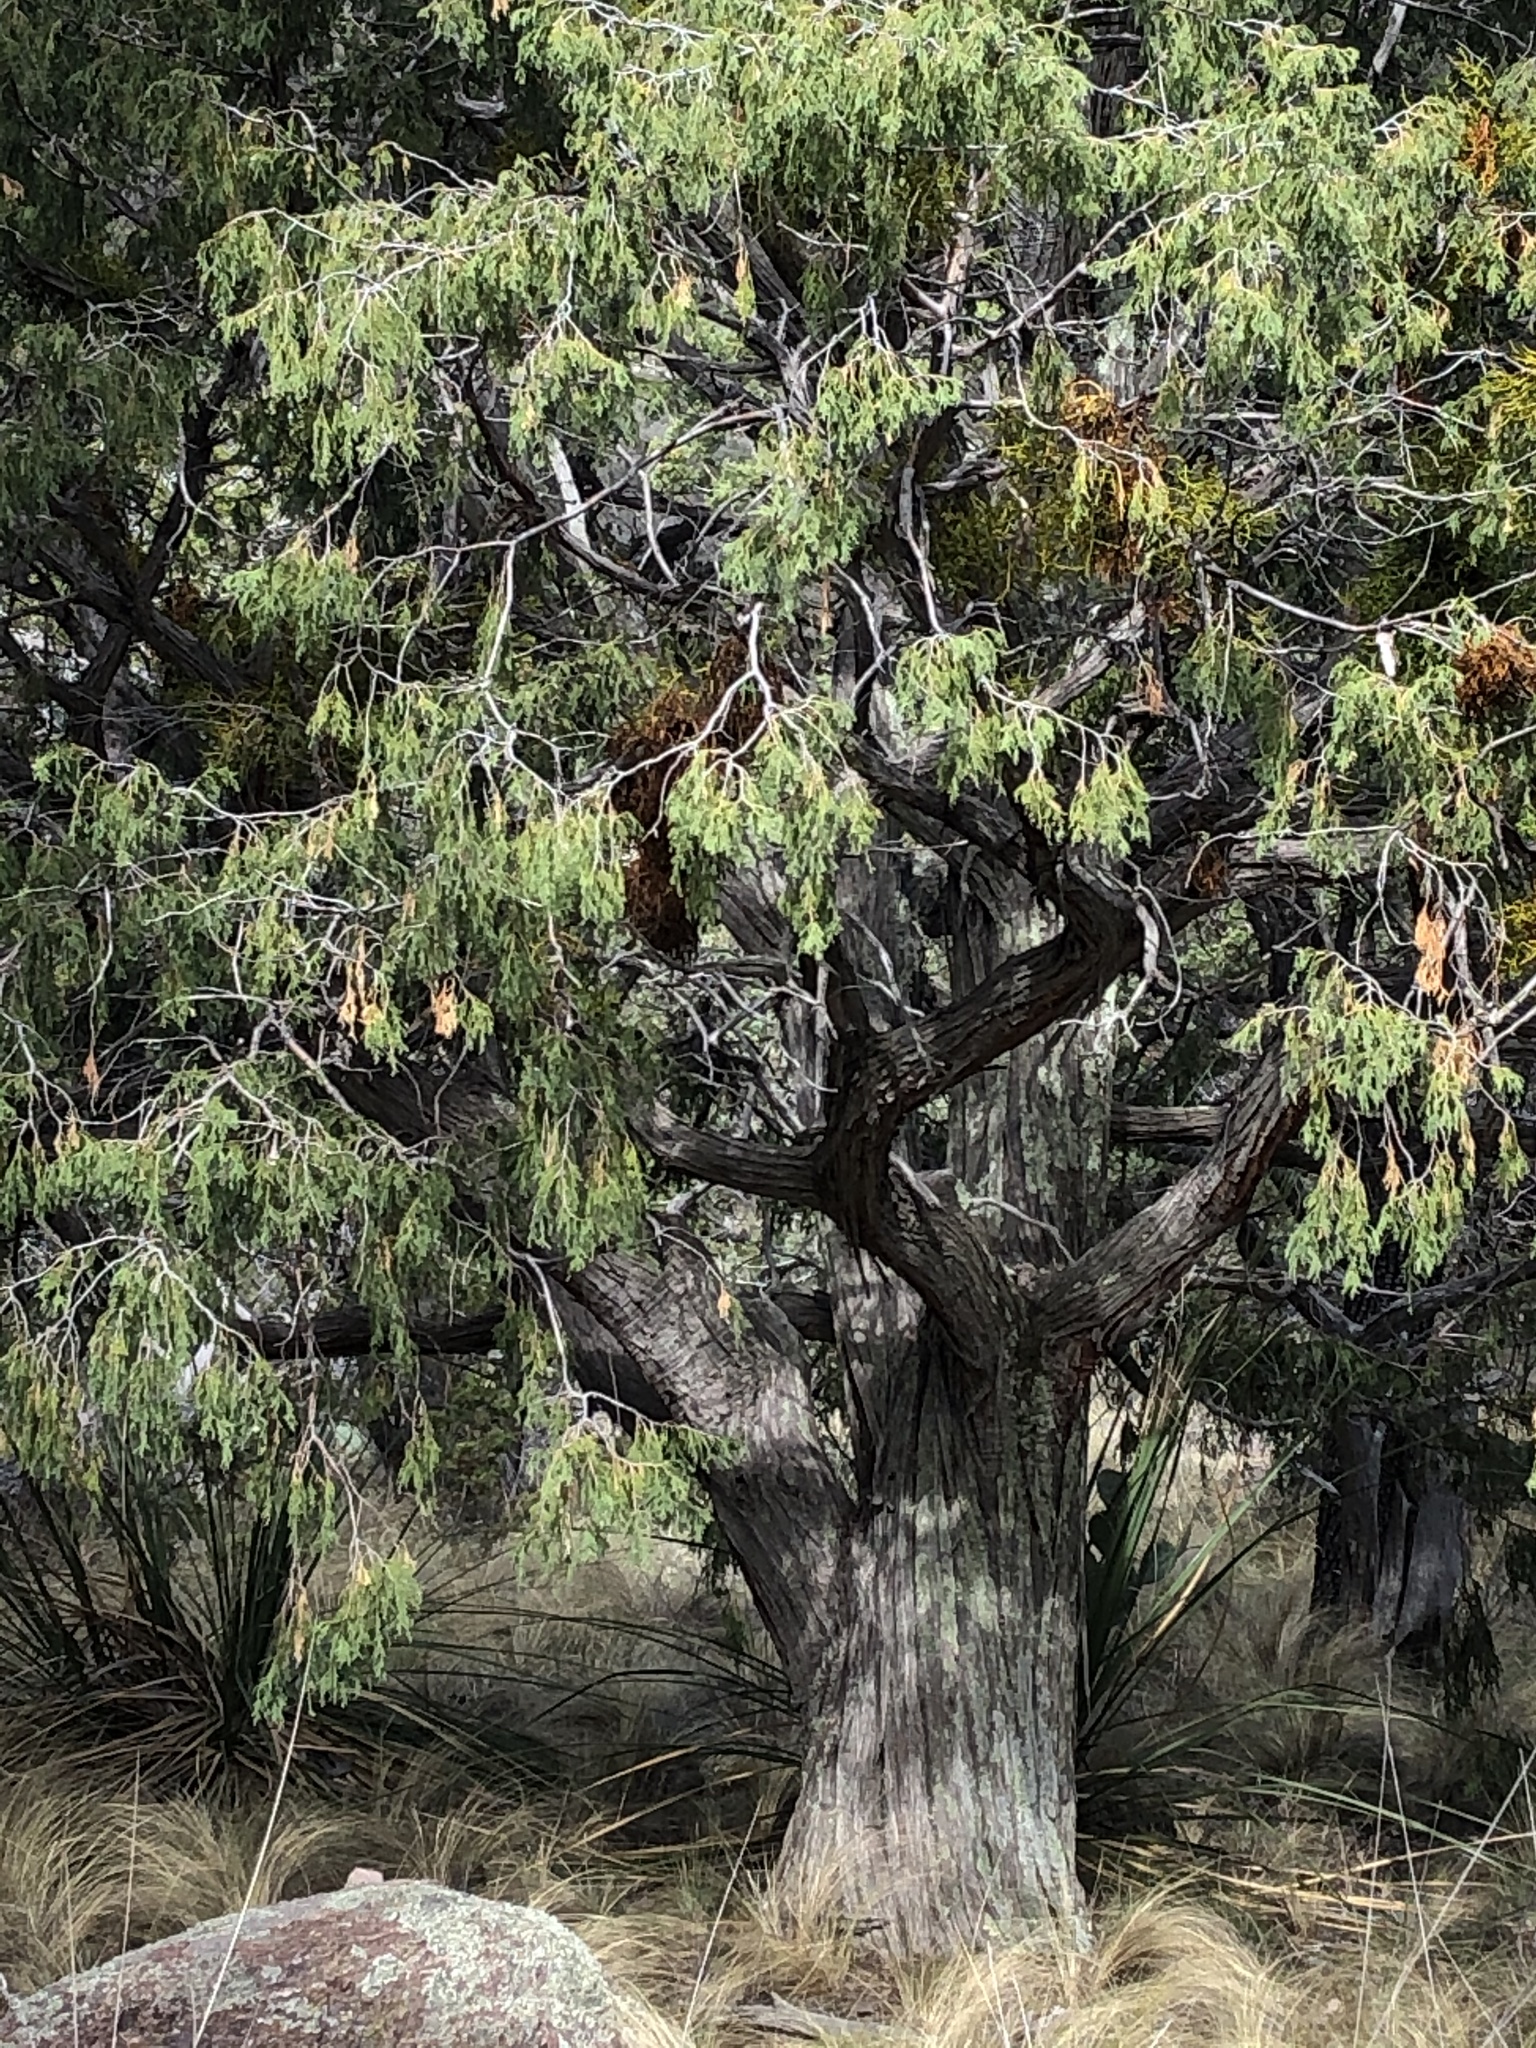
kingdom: Plantae
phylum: Tracheophyta
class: Pinopsida
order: Pinales
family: Cupressaceae
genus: Juniperus
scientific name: Juniperus flaccida
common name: Drooping juniper
